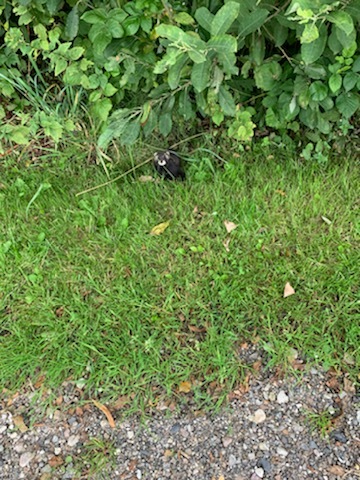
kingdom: Animalia
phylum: Chordata
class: Mammalia
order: Carnivora
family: Mustelidae
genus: Mustela
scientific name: Mustela putorius
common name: European polecat
